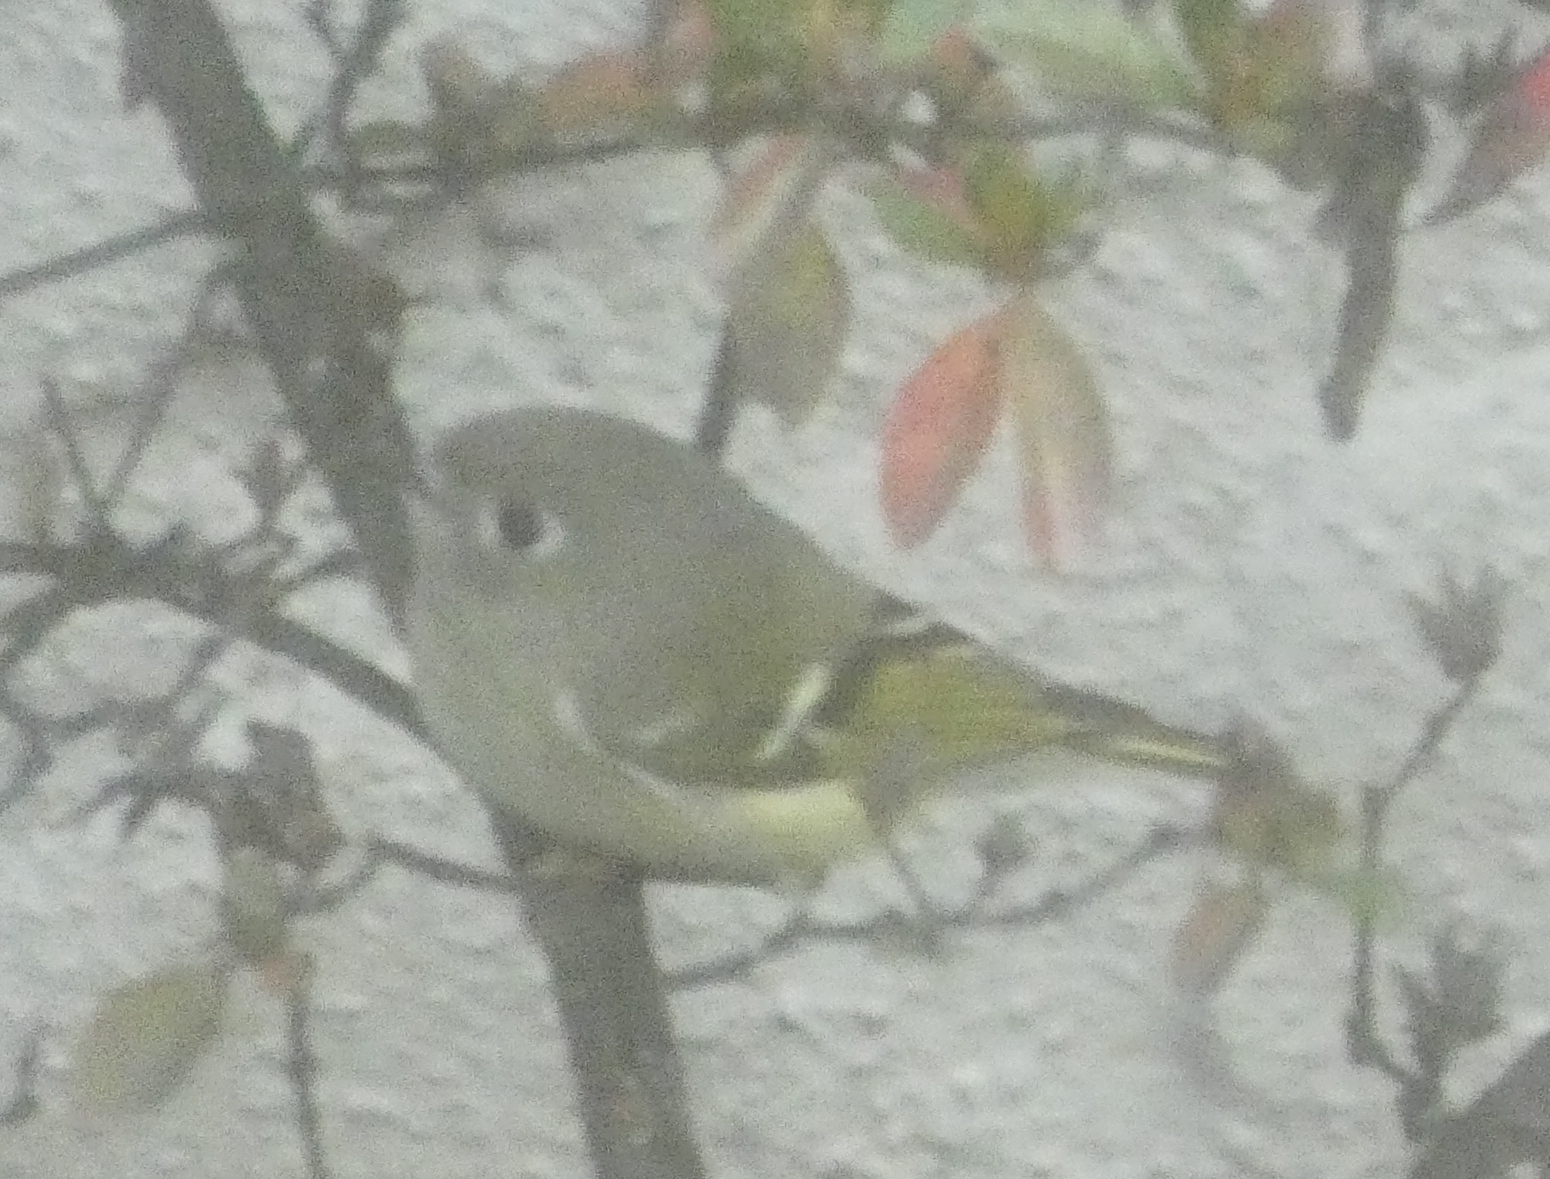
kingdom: Animalia
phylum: Chordata
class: Aves
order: Passeriformes
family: Regulidae
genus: Regulus
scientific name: Regulus calendula
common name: Ruby-crowned kinglet
